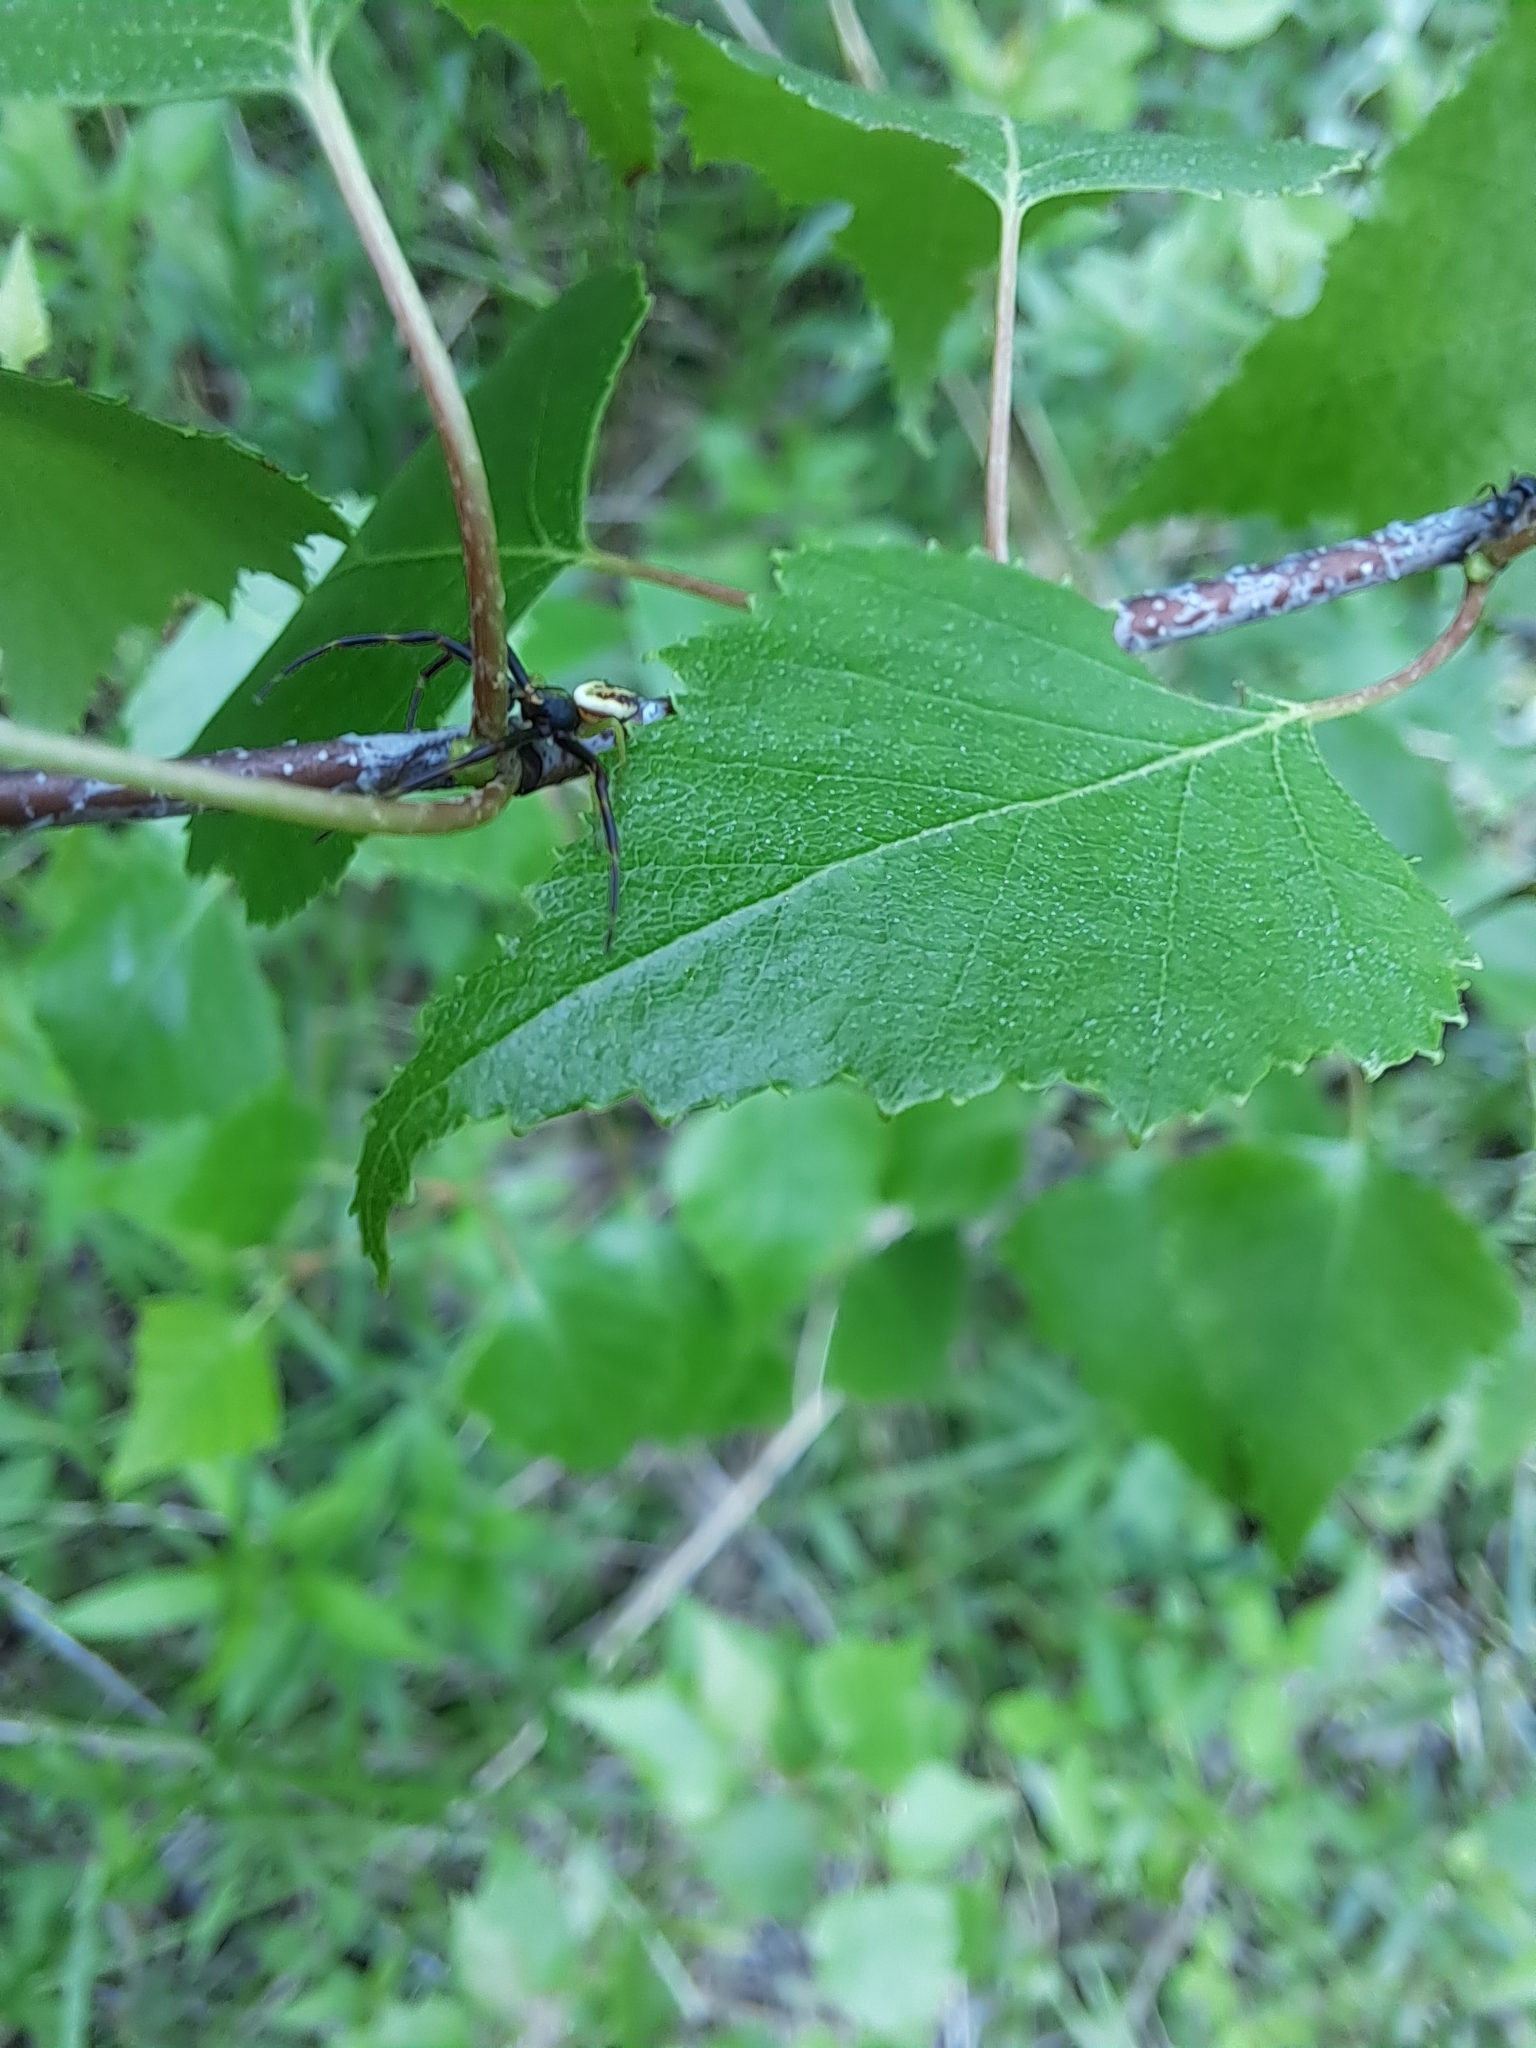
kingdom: Animalia
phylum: Arthropoda
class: Arachnida
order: Araneae
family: Thomisidae
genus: Misumena
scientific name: Misumena vatia
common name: Goldenrod crab spider
